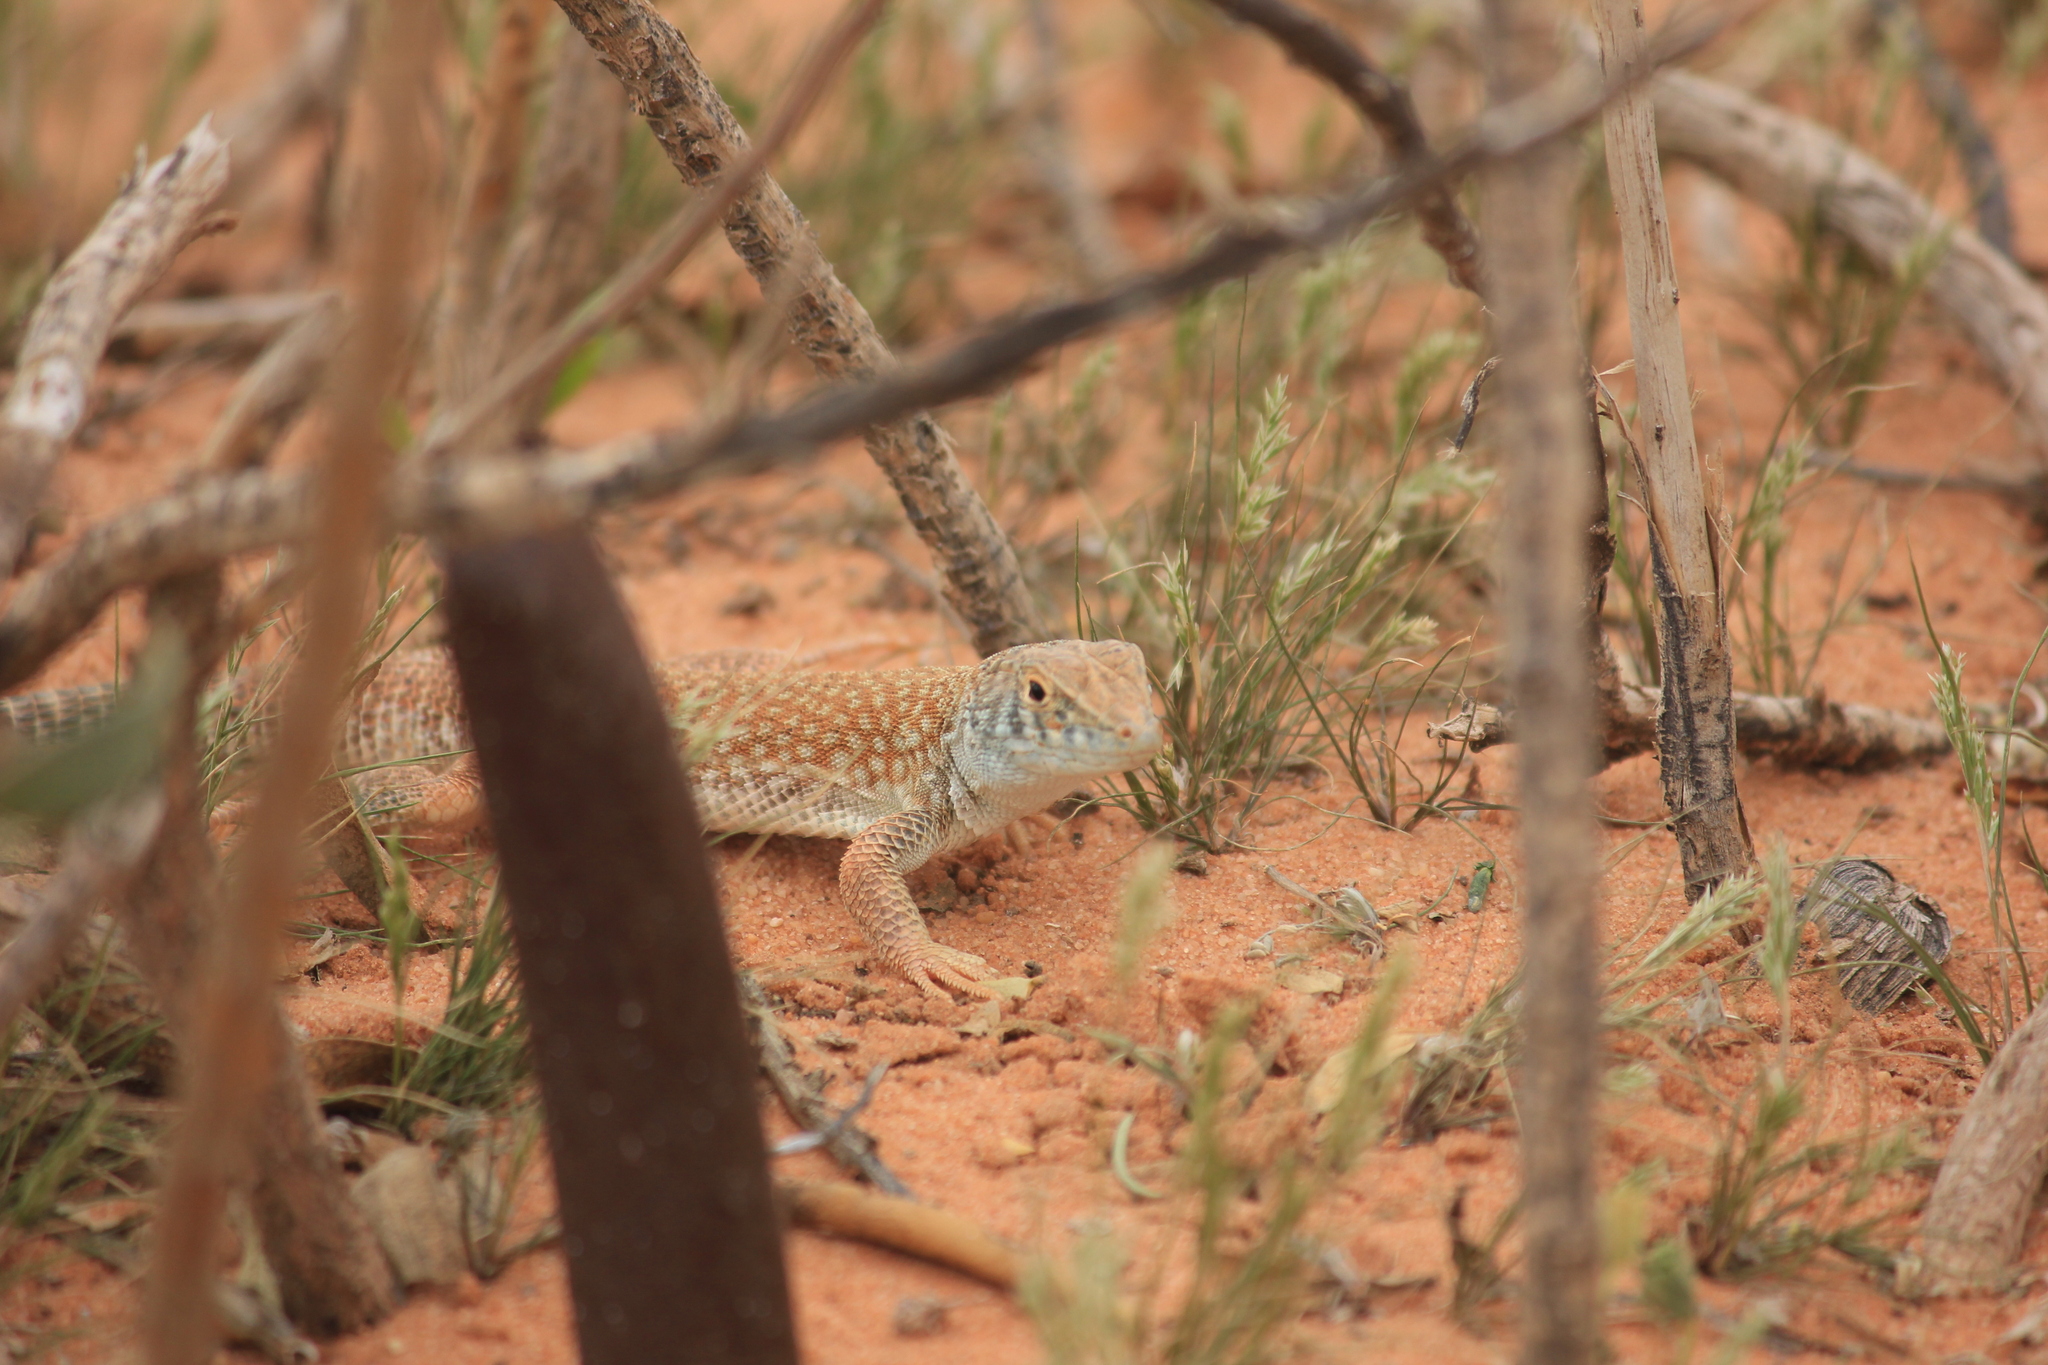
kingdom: Animalia
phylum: Chordata
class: Squamata
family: Lacertidae
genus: Acanthodactylus
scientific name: Acanthodactylus schmidti
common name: Schmidt's fringe-toed lizard
